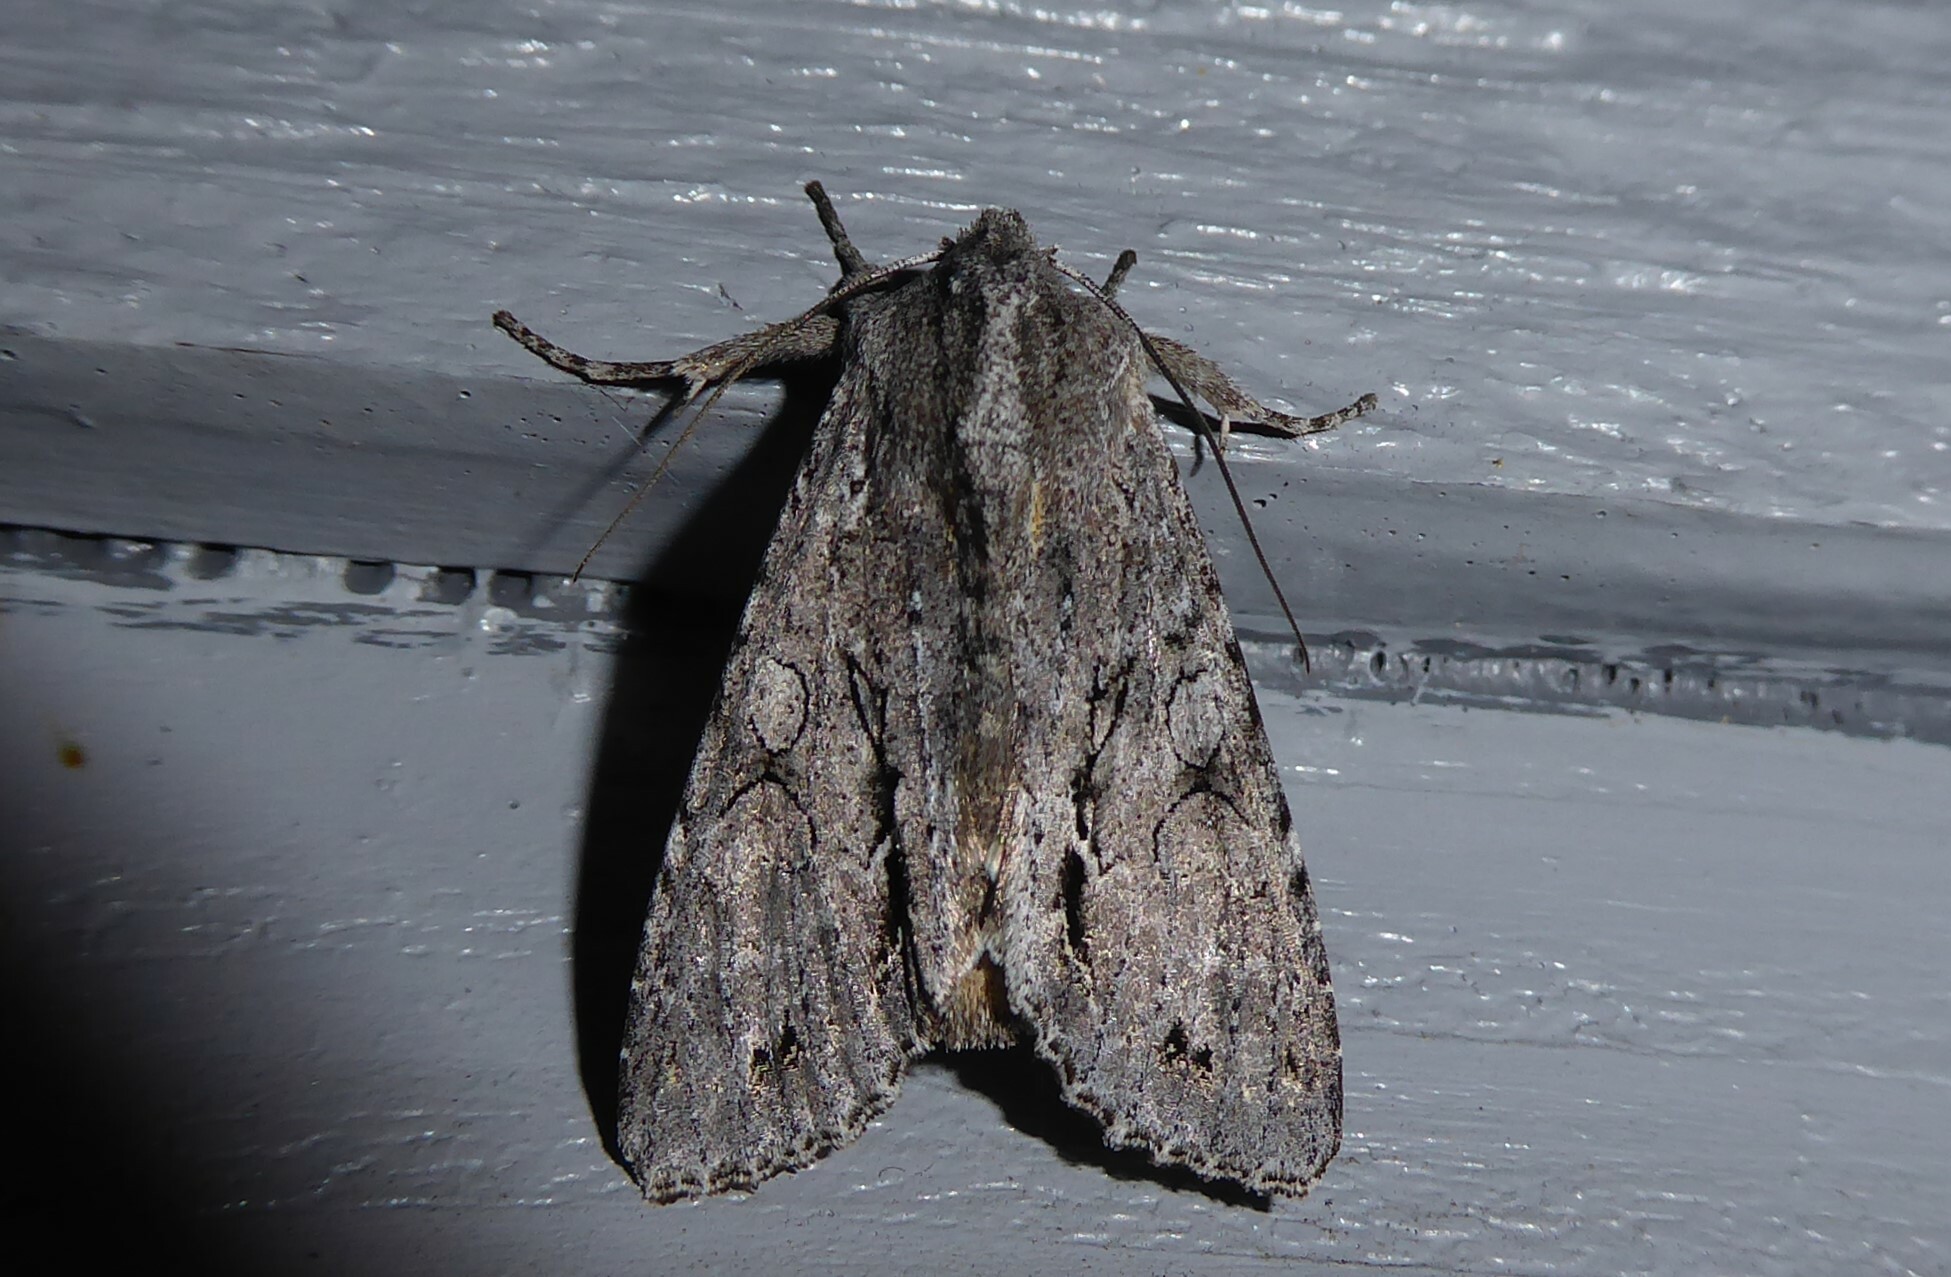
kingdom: Animalia
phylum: Arthropoda
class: Insecta
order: Lepidoptera
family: Noctuidae
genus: Ichneutica
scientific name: Ichneutica
